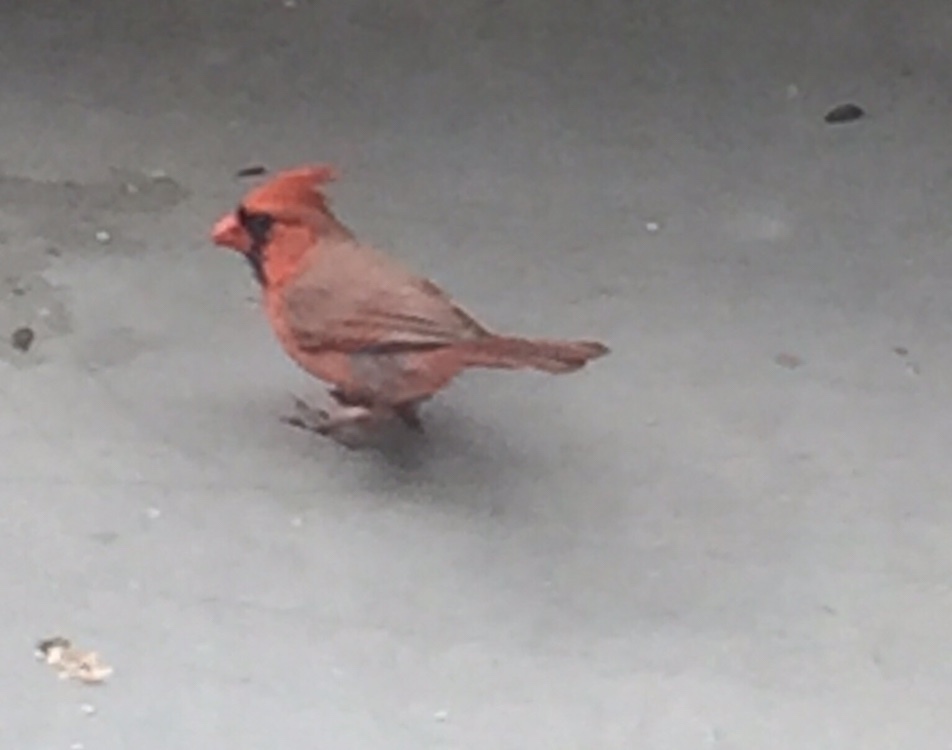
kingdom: Animalia
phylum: Chordata
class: Aves
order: Passeriformes
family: Cardinalidae
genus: Cardinalis
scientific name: Cardinalis cardinalis
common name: Northern cardinal
